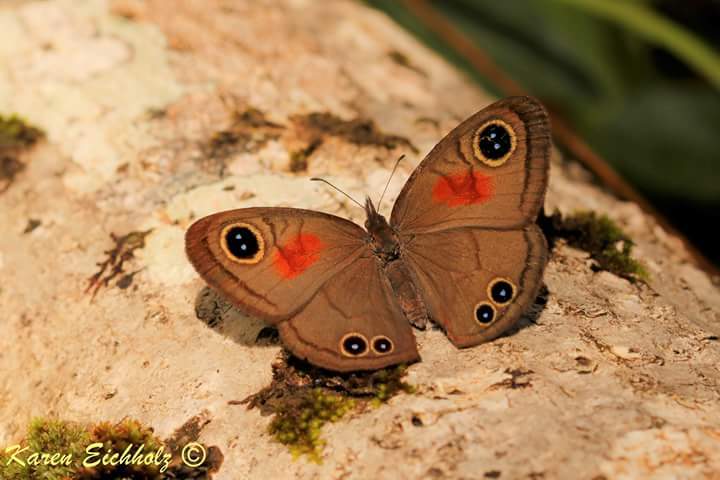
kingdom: Animalia
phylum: Arthropoda
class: Insecta
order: Lepidoptera
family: Nymphalidae
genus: Cassionympha
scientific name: Cassionympha cassius
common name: Rainforest brown
